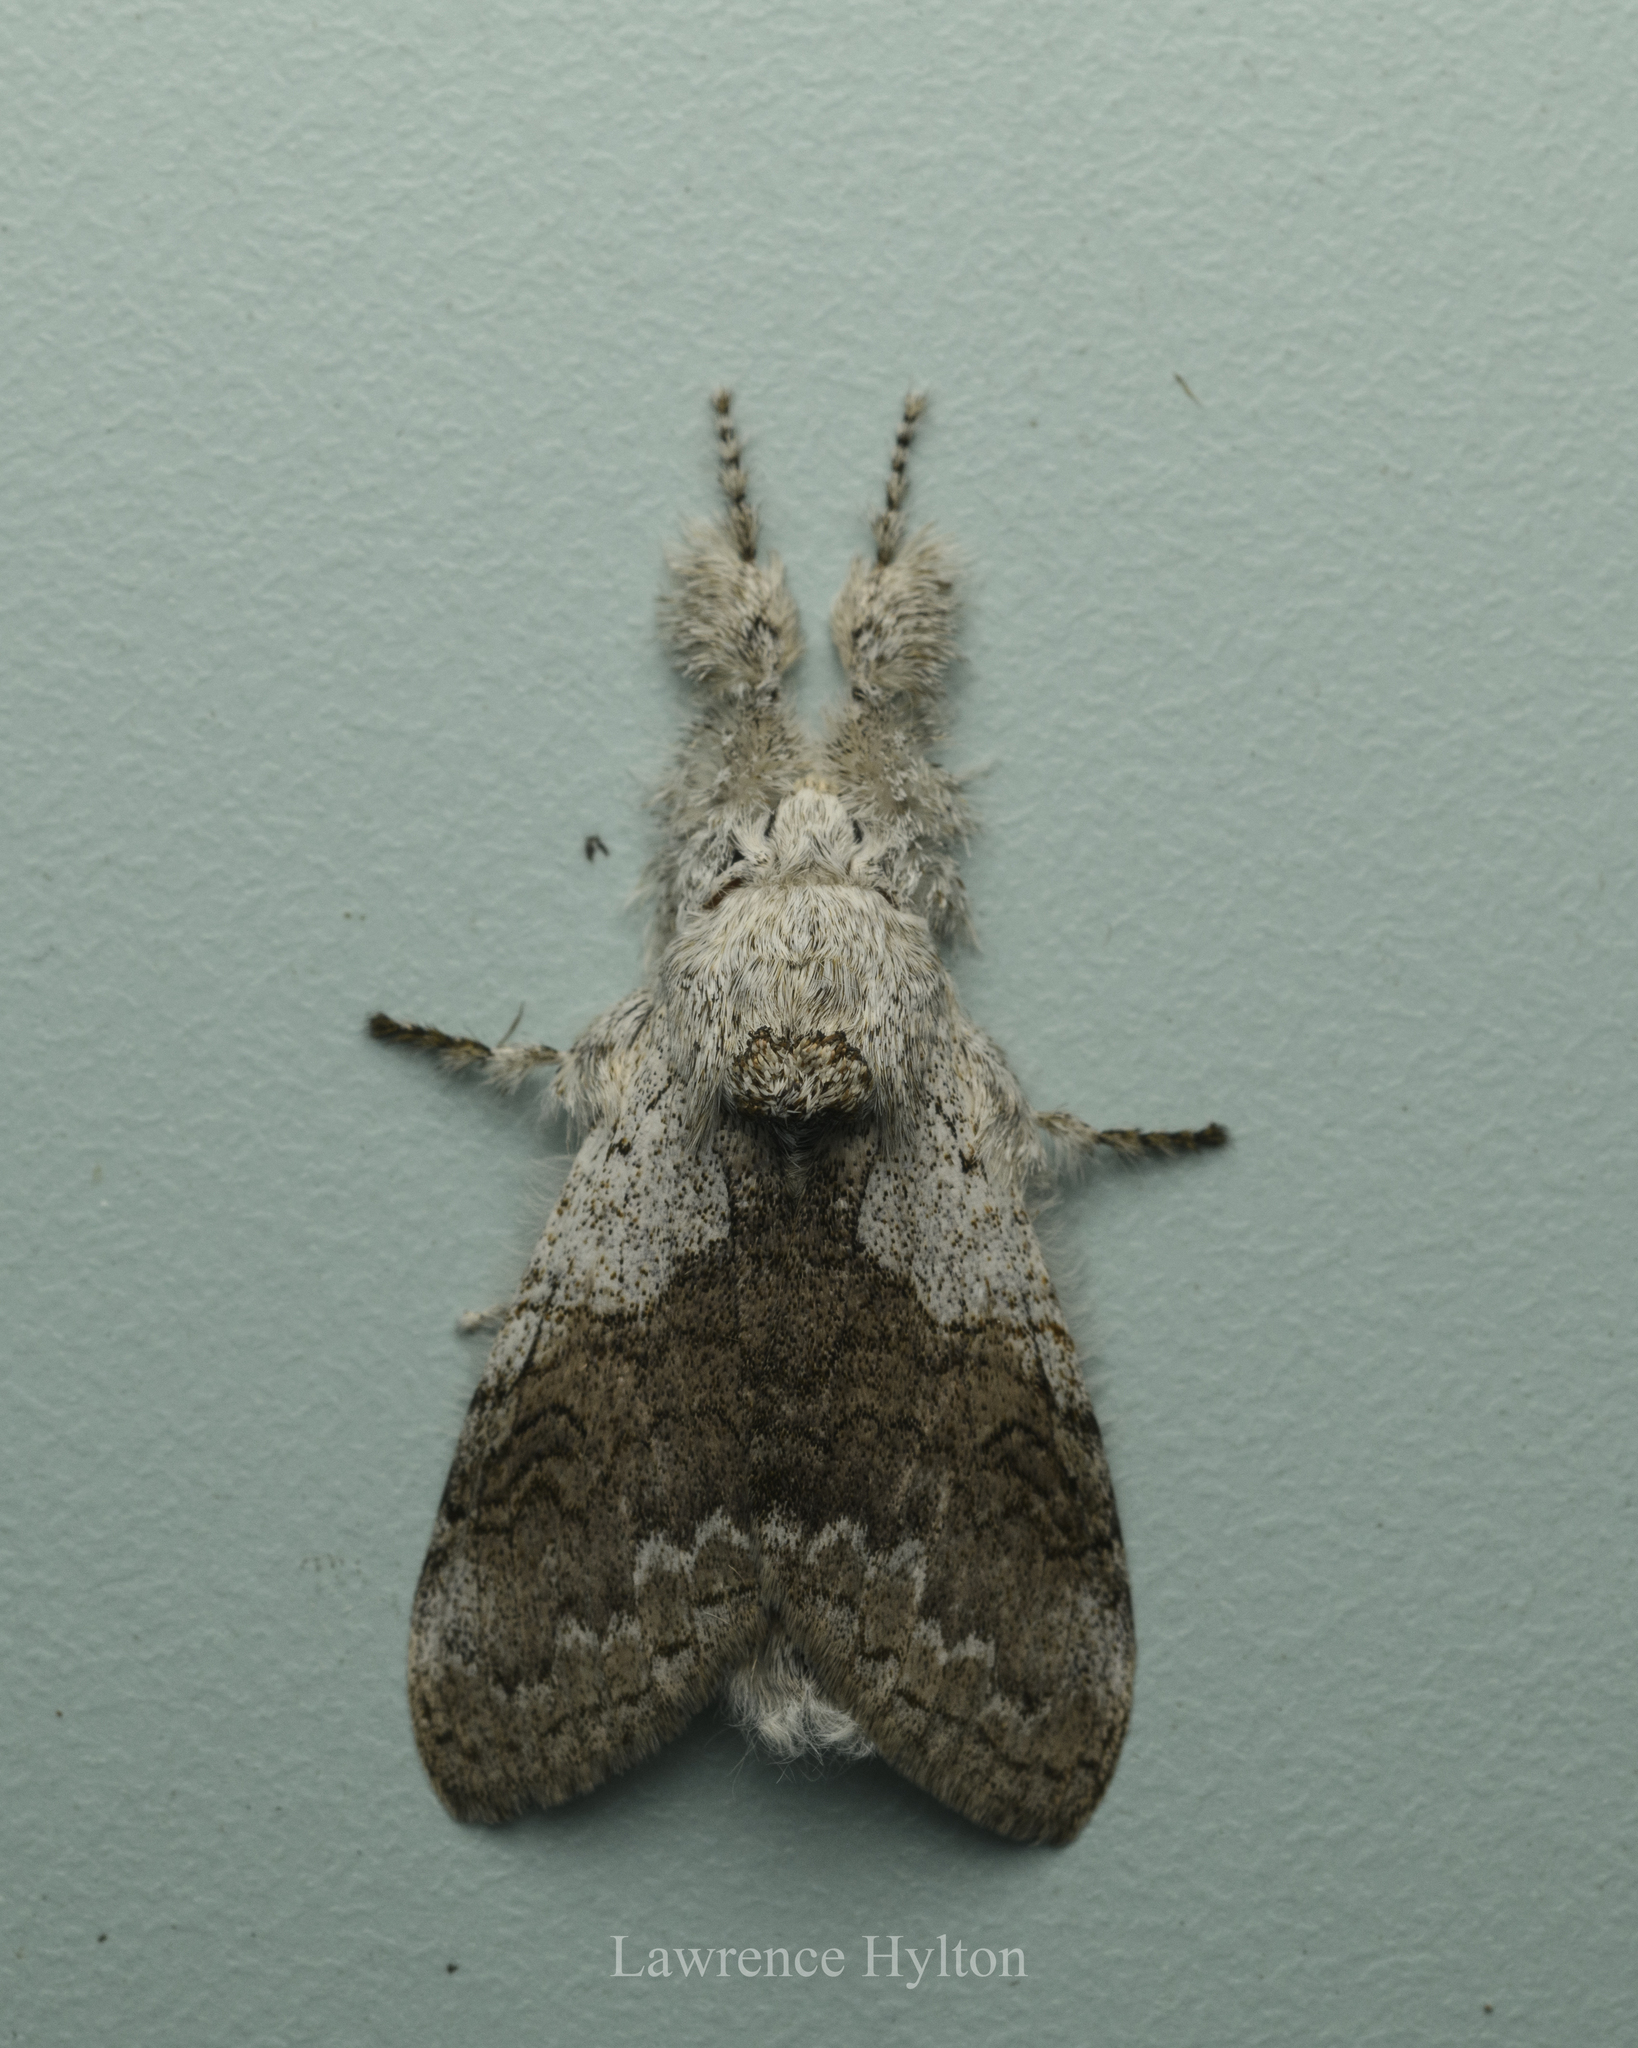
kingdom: Animalia
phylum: Arthropoda
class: Insecta
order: Lepidoptera
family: Erebidae
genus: Calliteara
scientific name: Calliteara grotei
